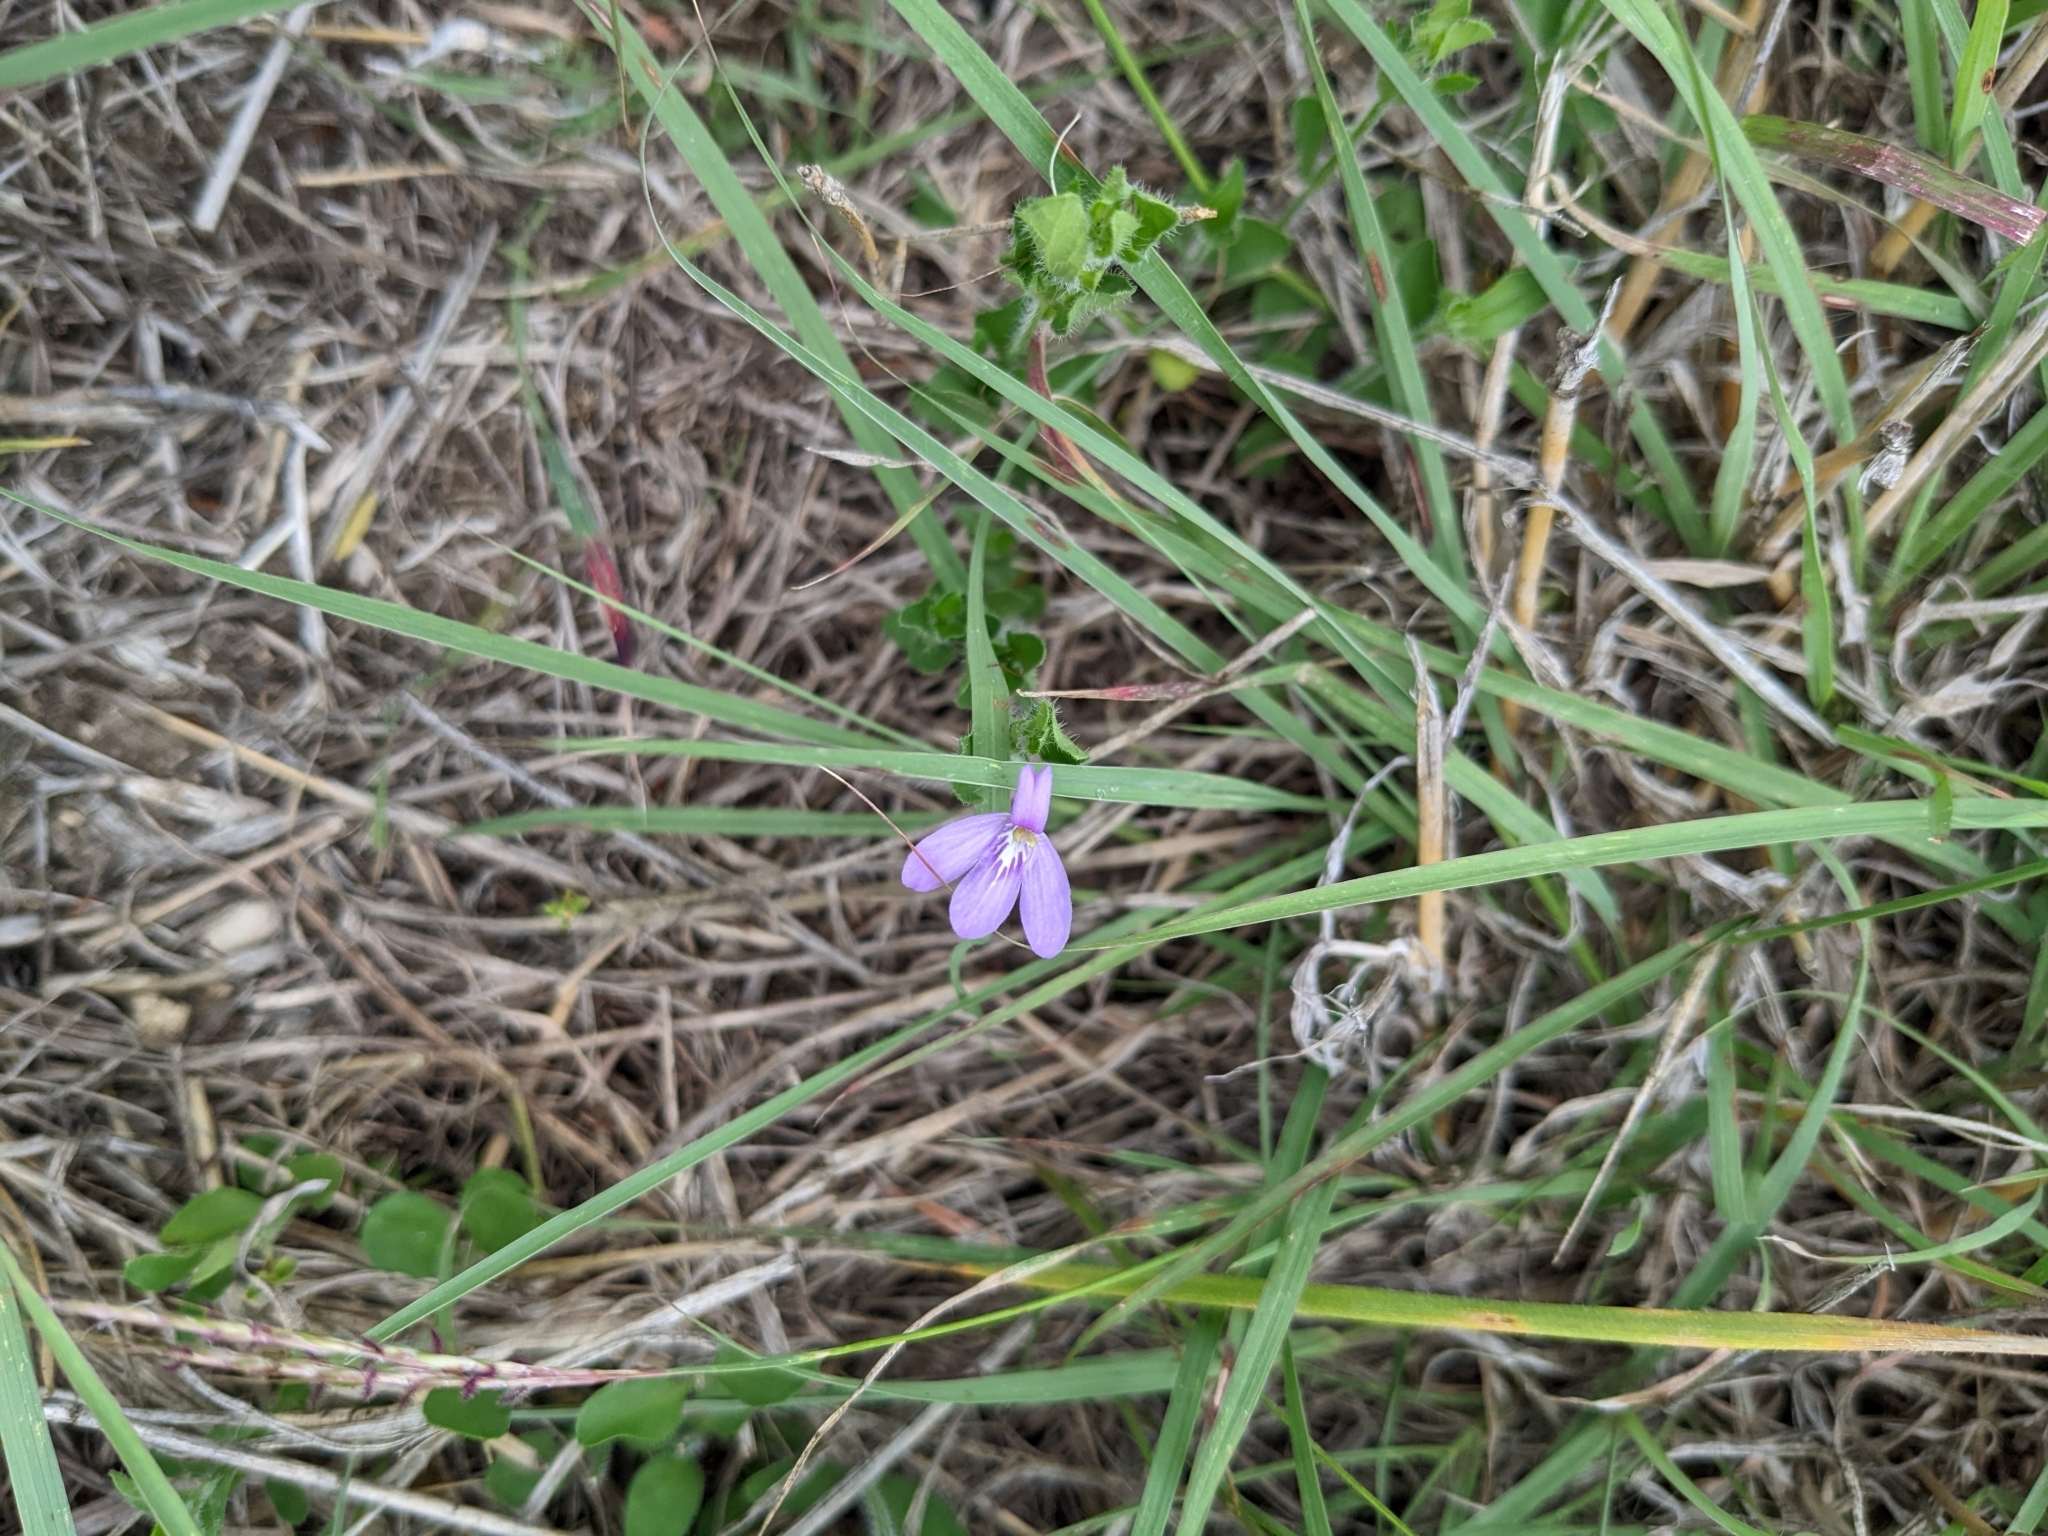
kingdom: Plantae
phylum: Tracheophyta
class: Magnoliopsida
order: Lamiales
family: Acanthaceae
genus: Justicia
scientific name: Justicia pilosella
